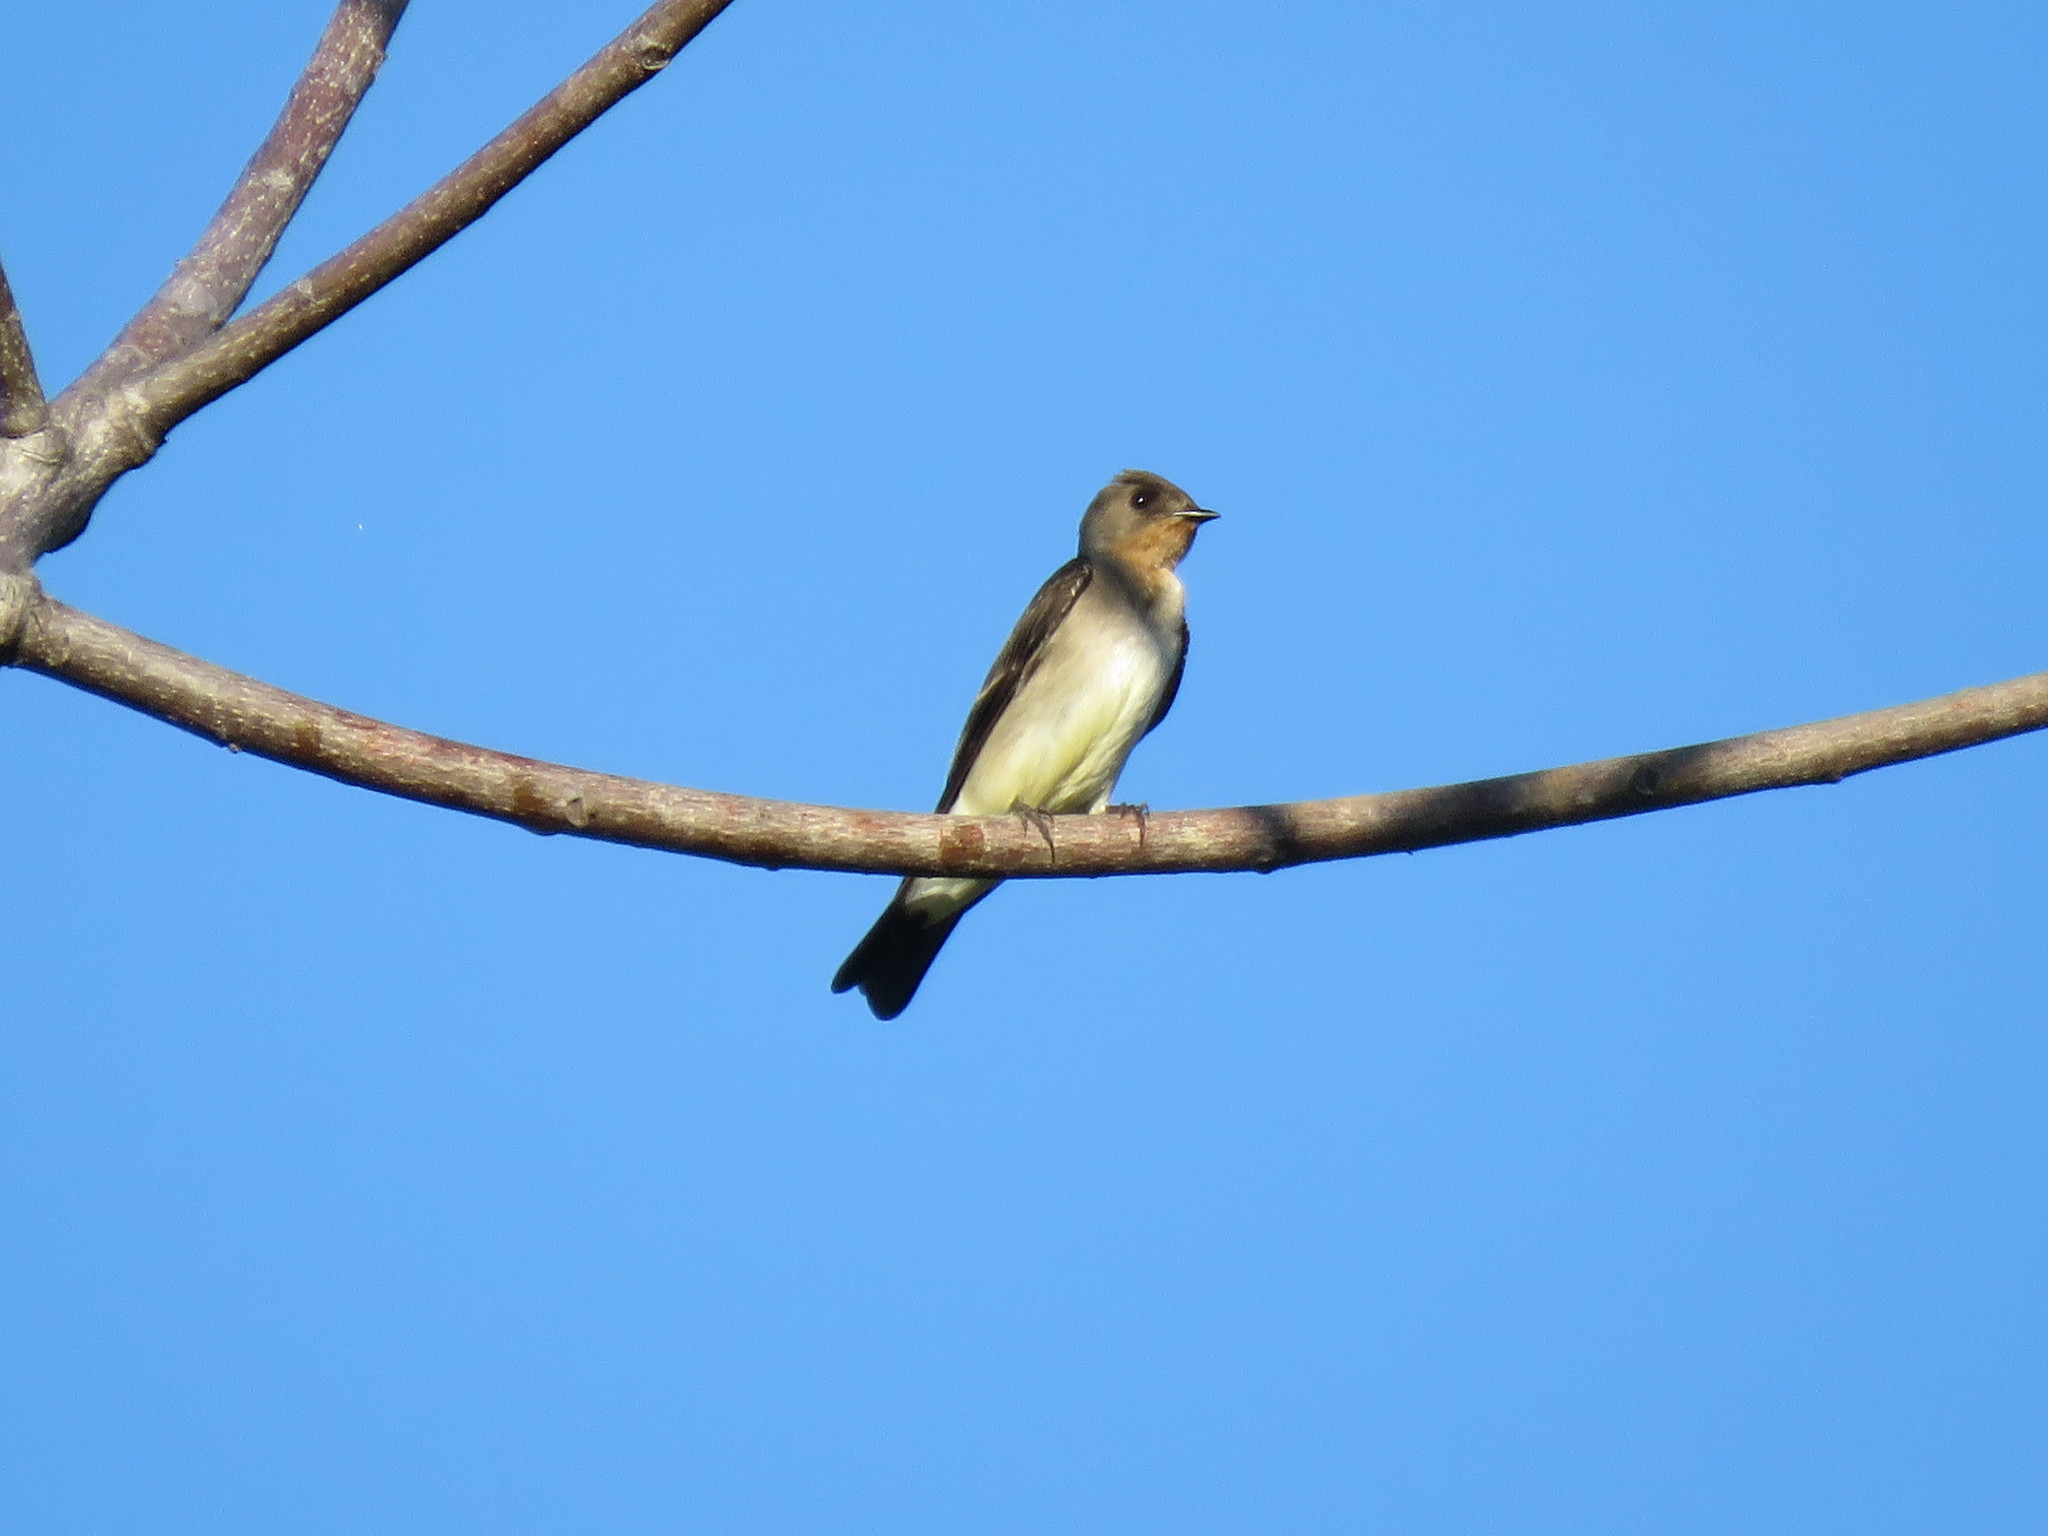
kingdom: Animalia
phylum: Chordata
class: Aves
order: Passeriformes
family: Hirundinidae
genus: Stelgidopteryx
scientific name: Stelgidopteryx ruficollis
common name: Southern rough-winged swallow
